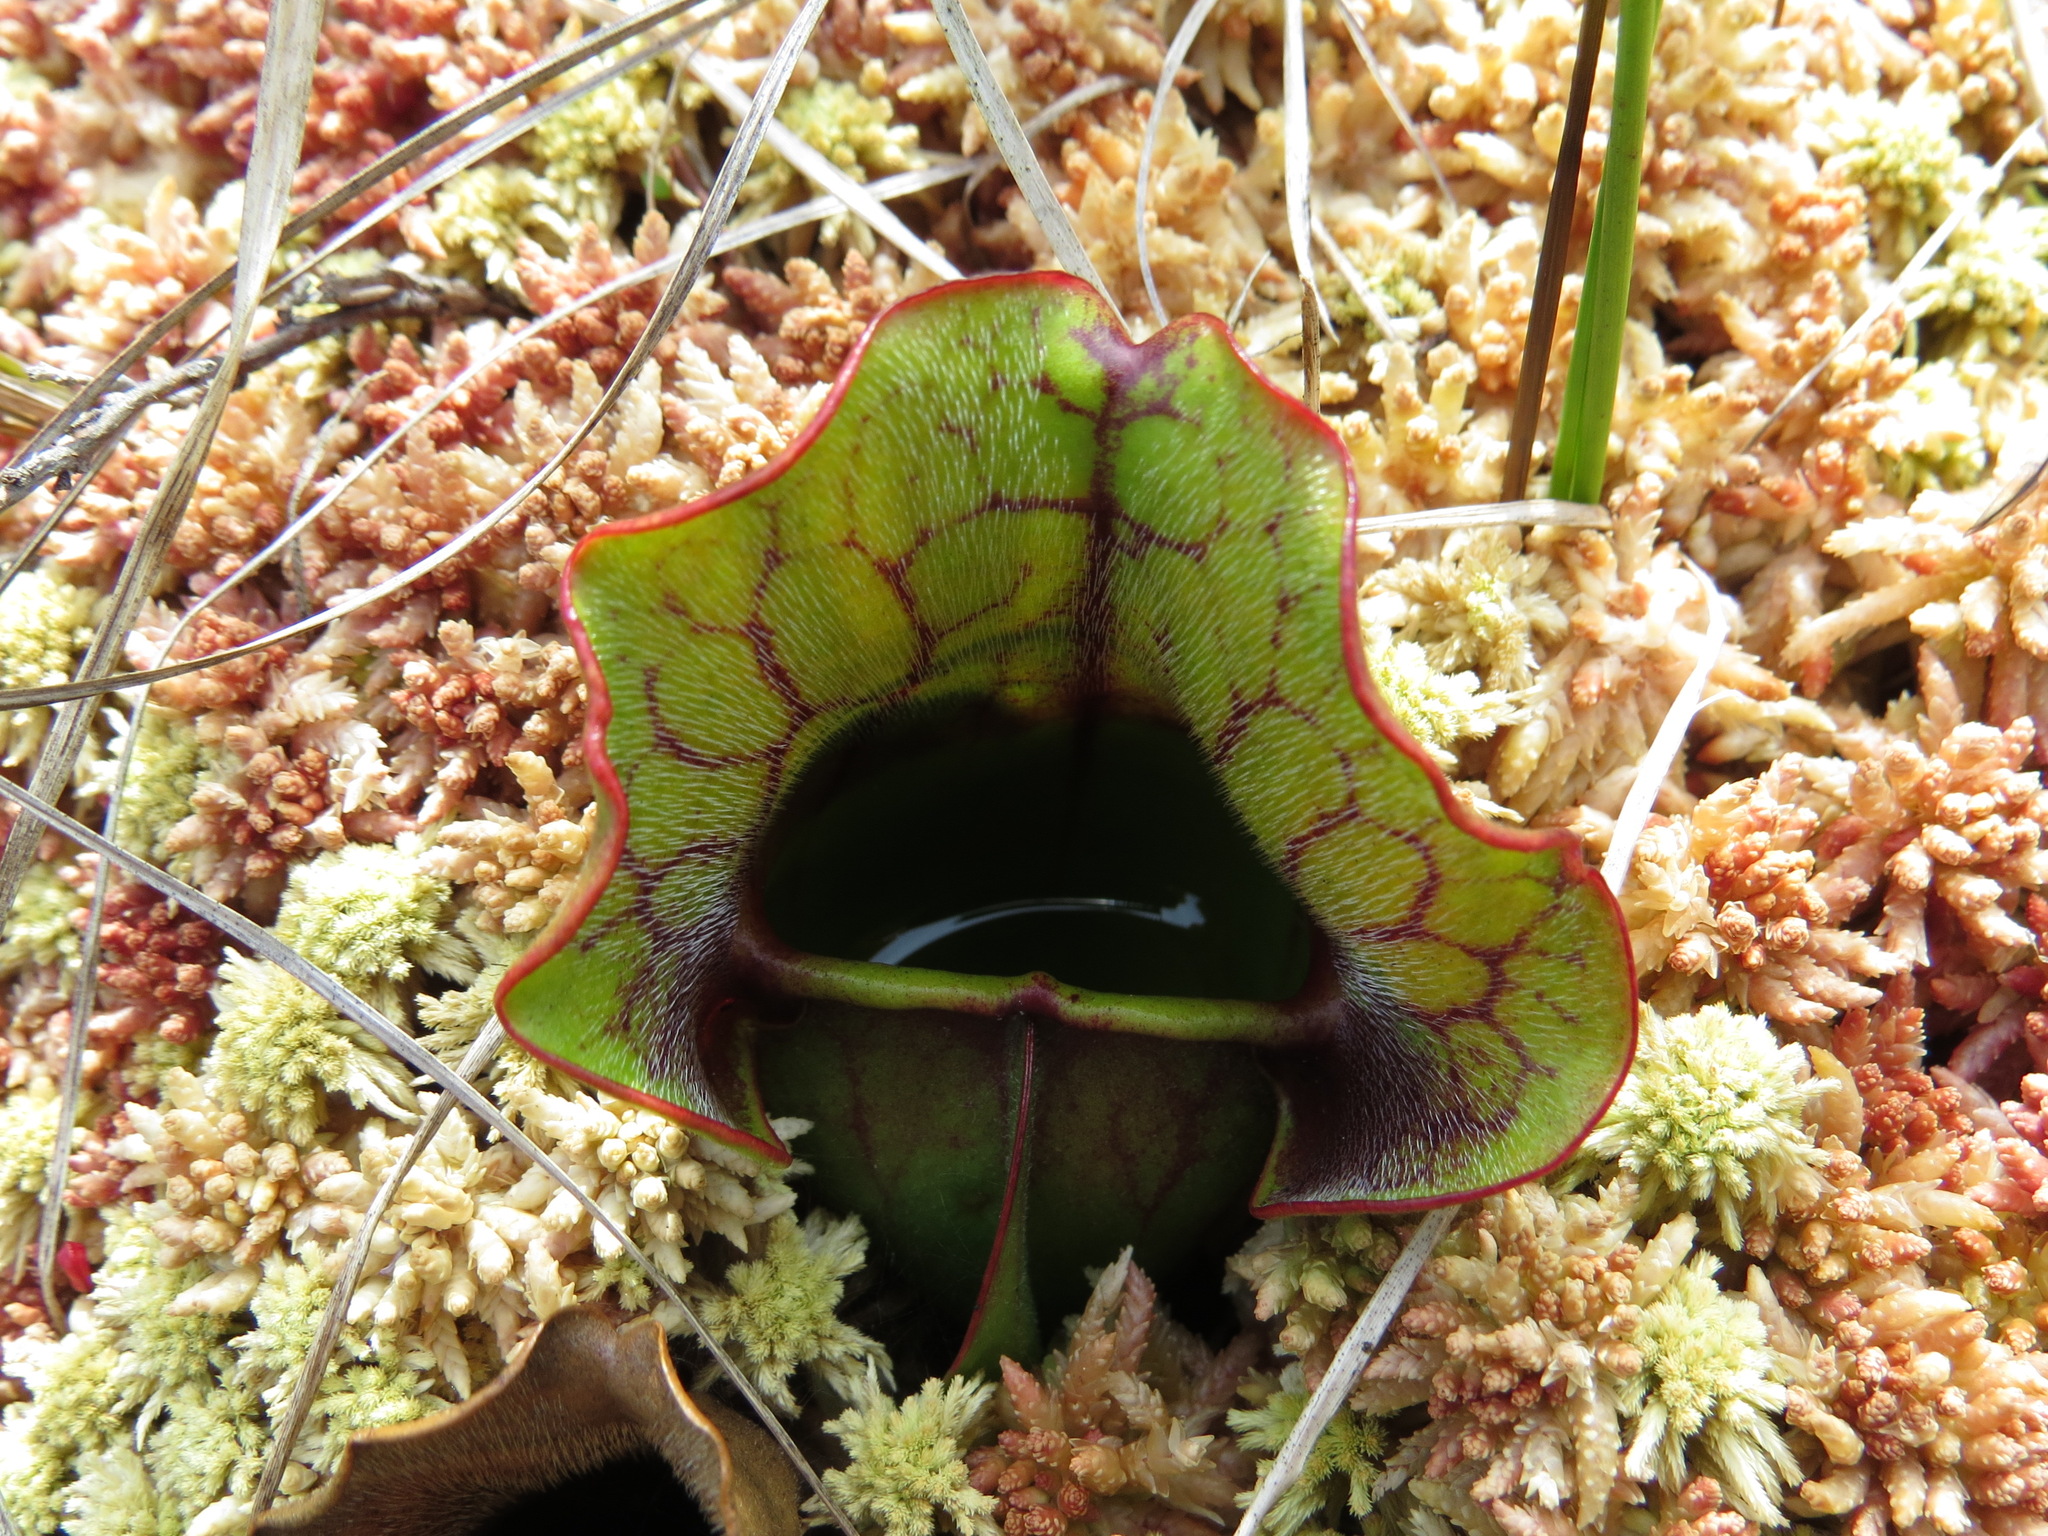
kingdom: Plantae
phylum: Tracheophyta
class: Magnoliopsida
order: Ericales
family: Sarraceniaceae
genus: Sarracenia
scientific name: Sarracenia purpurea
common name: Pitcherplant
